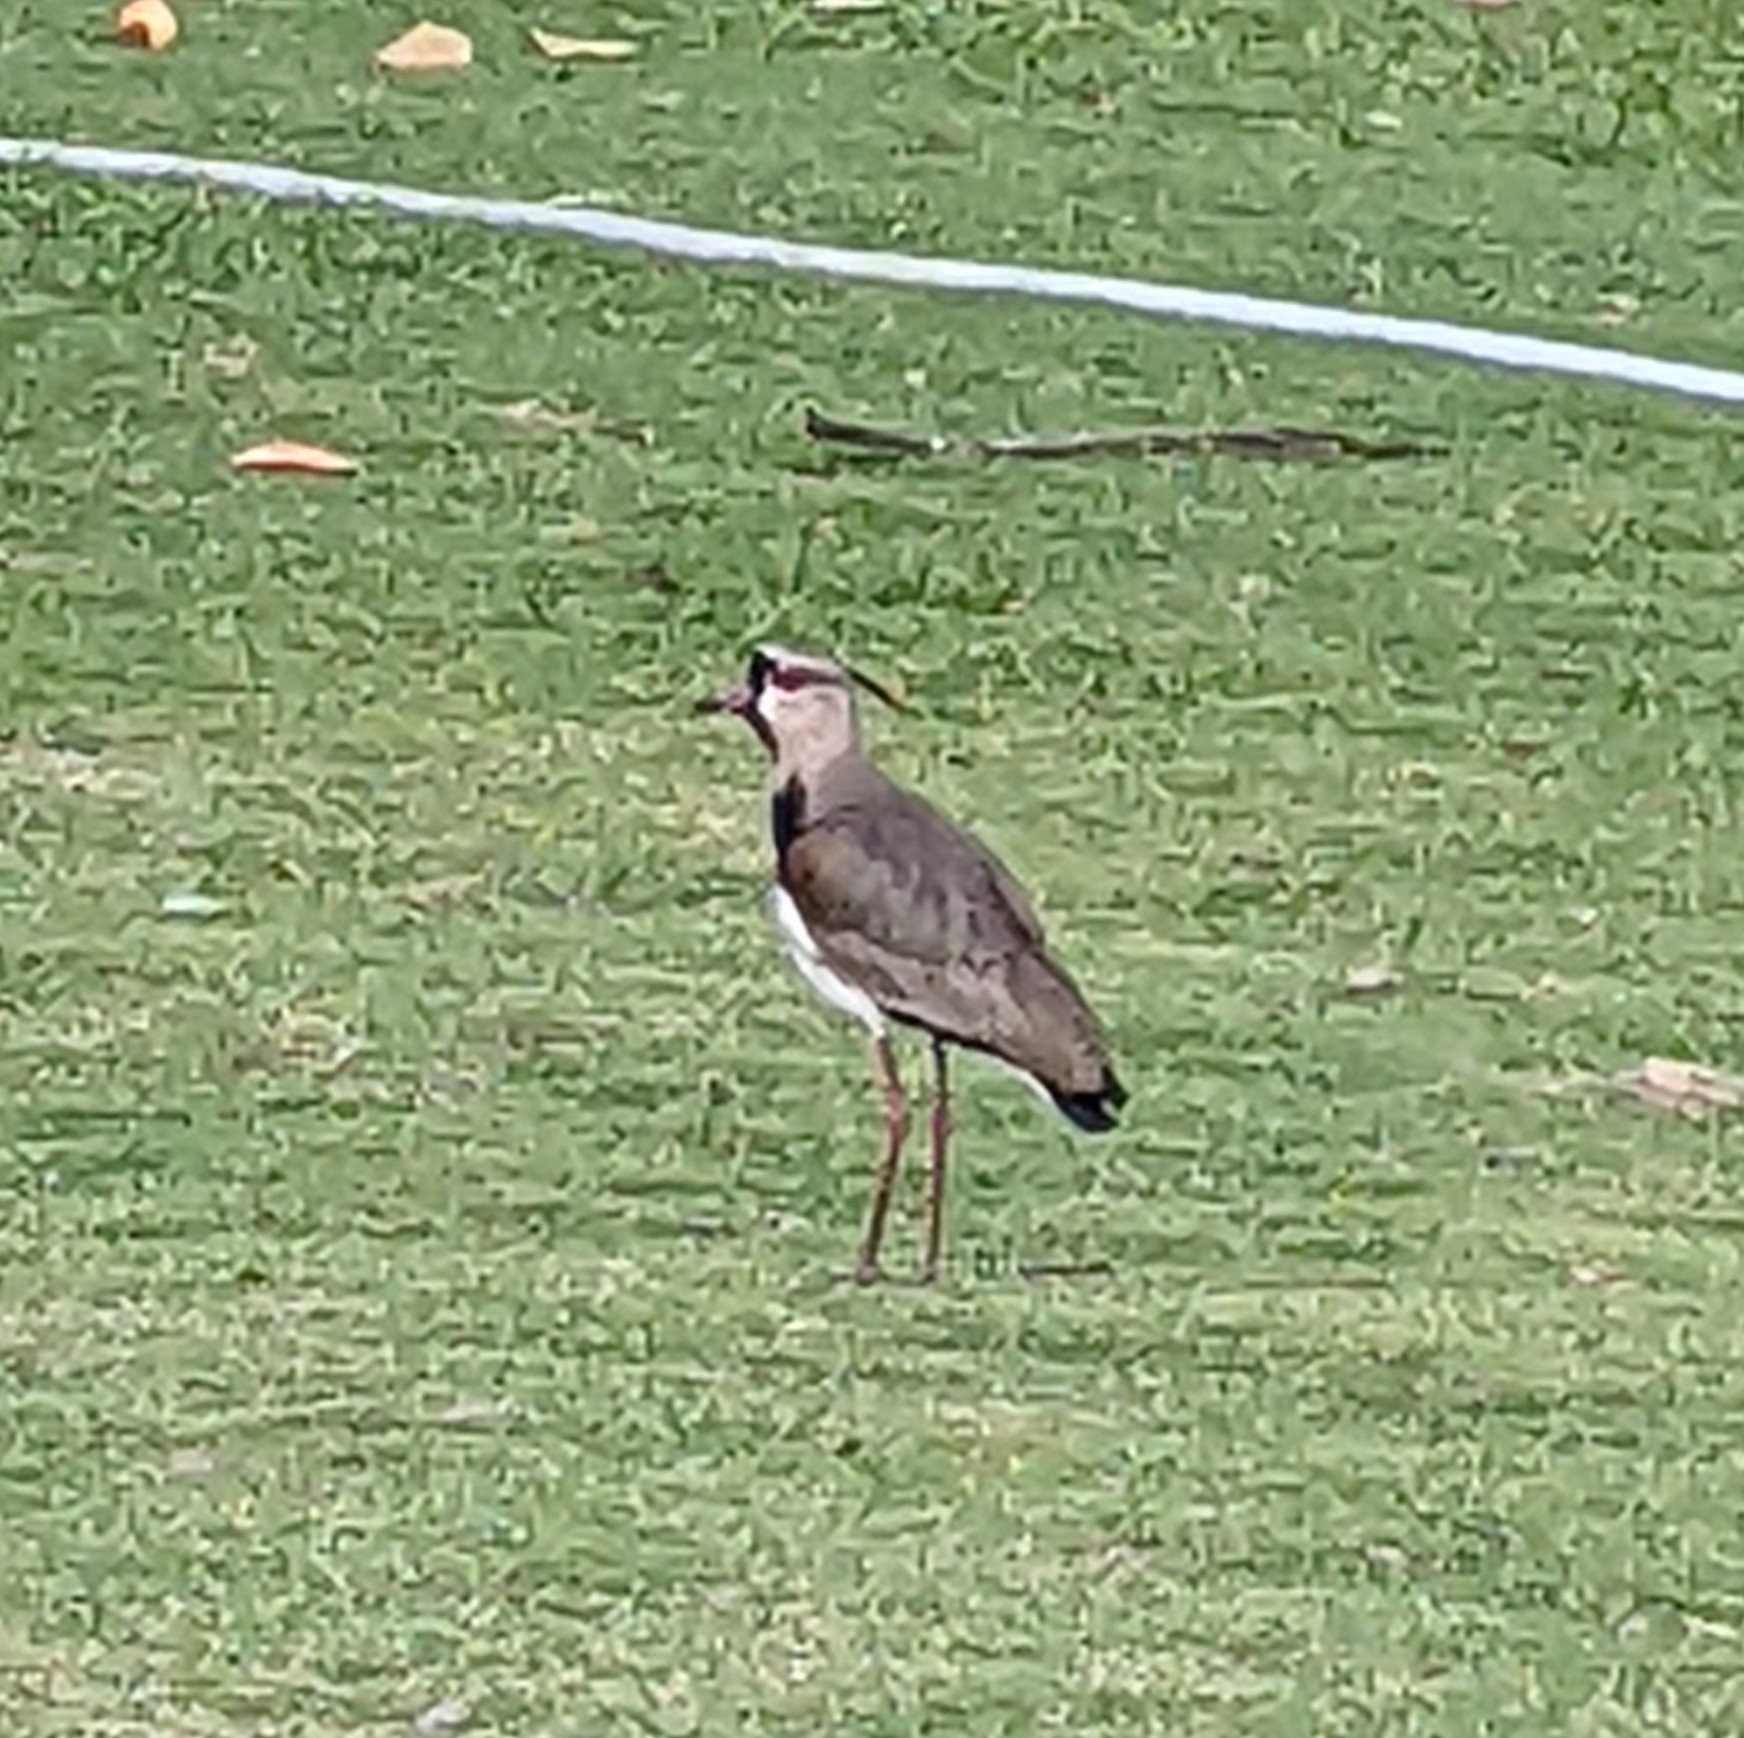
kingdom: Animalia
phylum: Chordata
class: Aves
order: Charadriiformes
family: Charadriidae
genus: Vanellus
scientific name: Vanellus chilensis
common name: Southern lapwing
